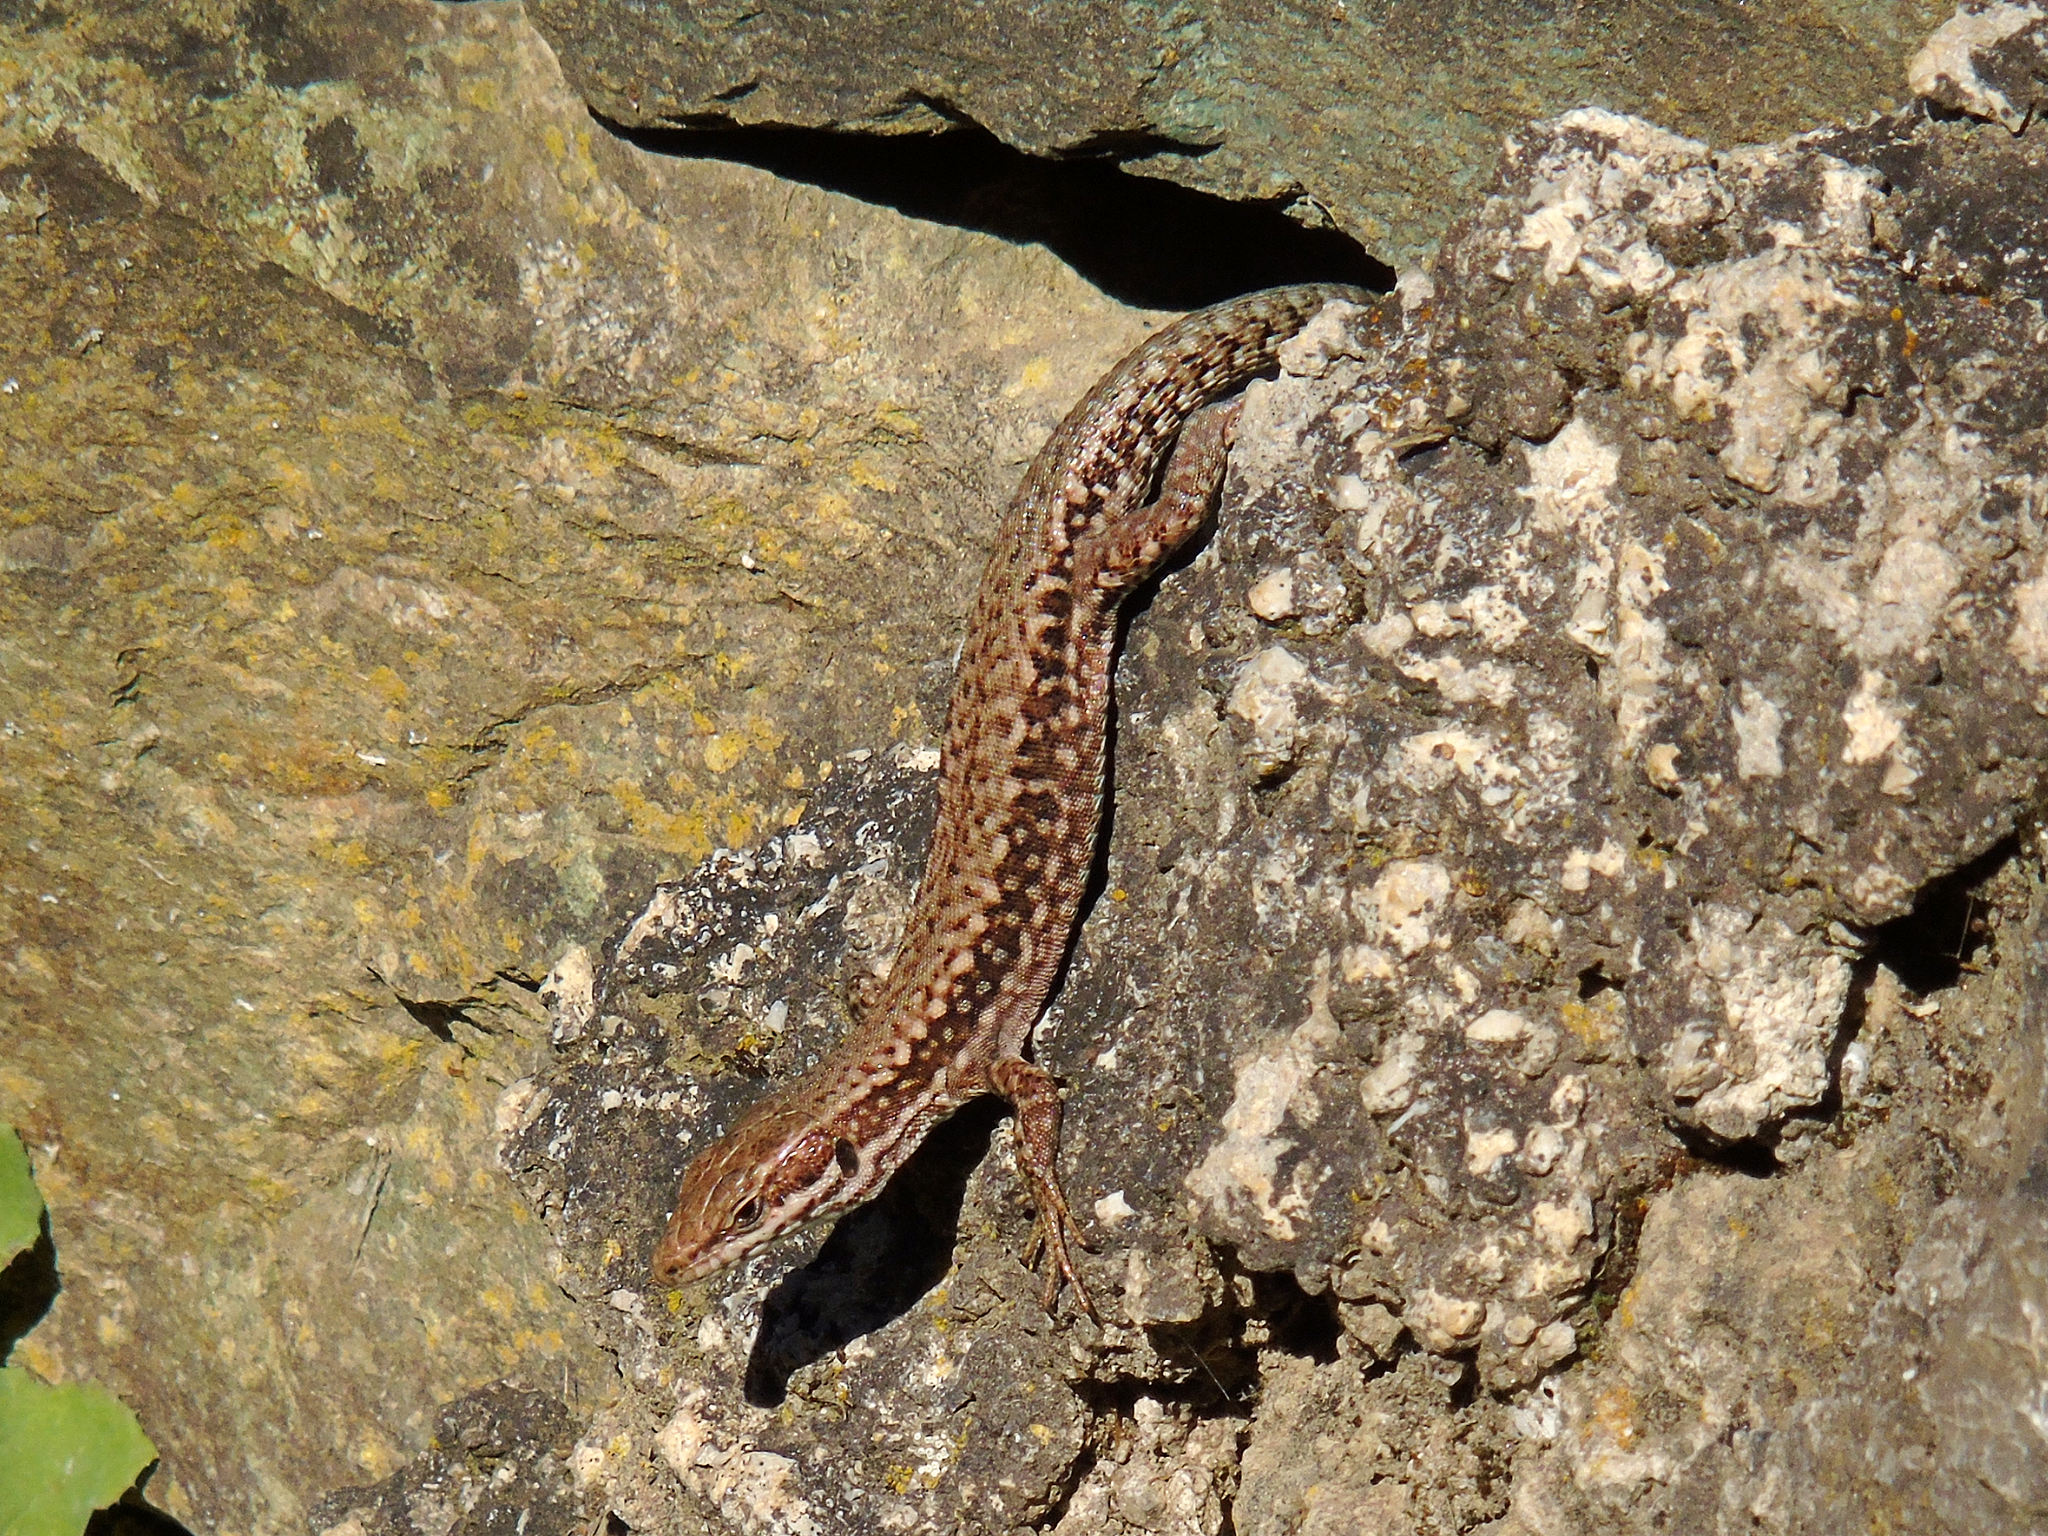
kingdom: Animalia
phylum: Chordata
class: Squamata
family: Lacertidae
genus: Podarcis
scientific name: Podarcis muralis
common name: Common wall lizard
